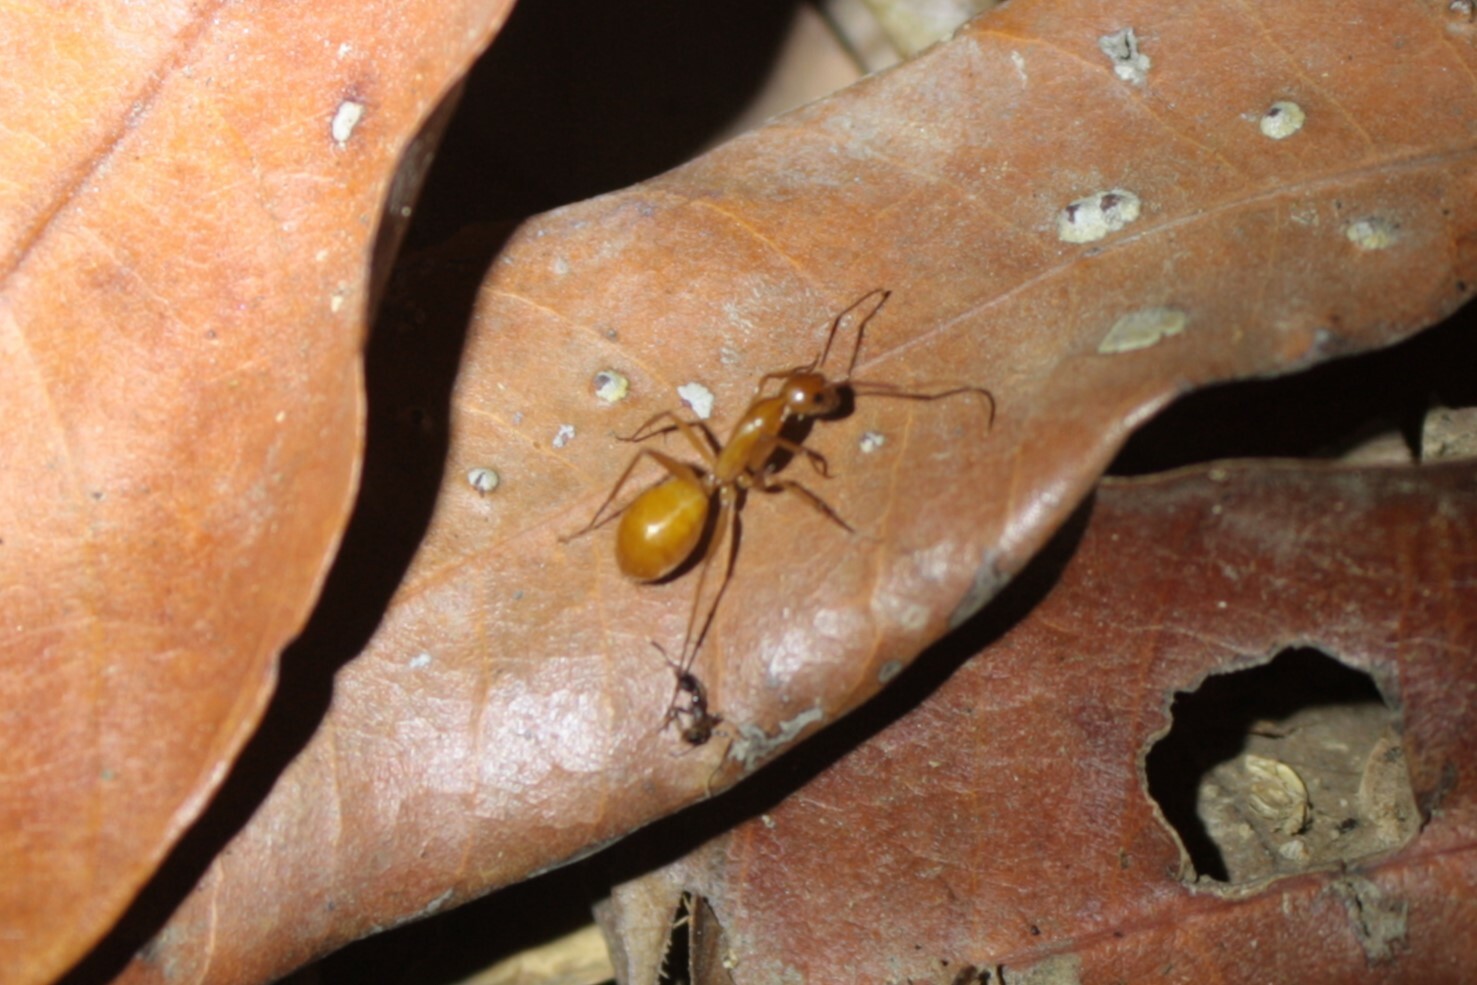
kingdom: Animalia
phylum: Arthropoda
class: Insecta
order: Hymenoptera
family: Formicidae
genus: Camponotus
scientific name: Camponotus variegatus
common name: Hawaiian carpenter ant
